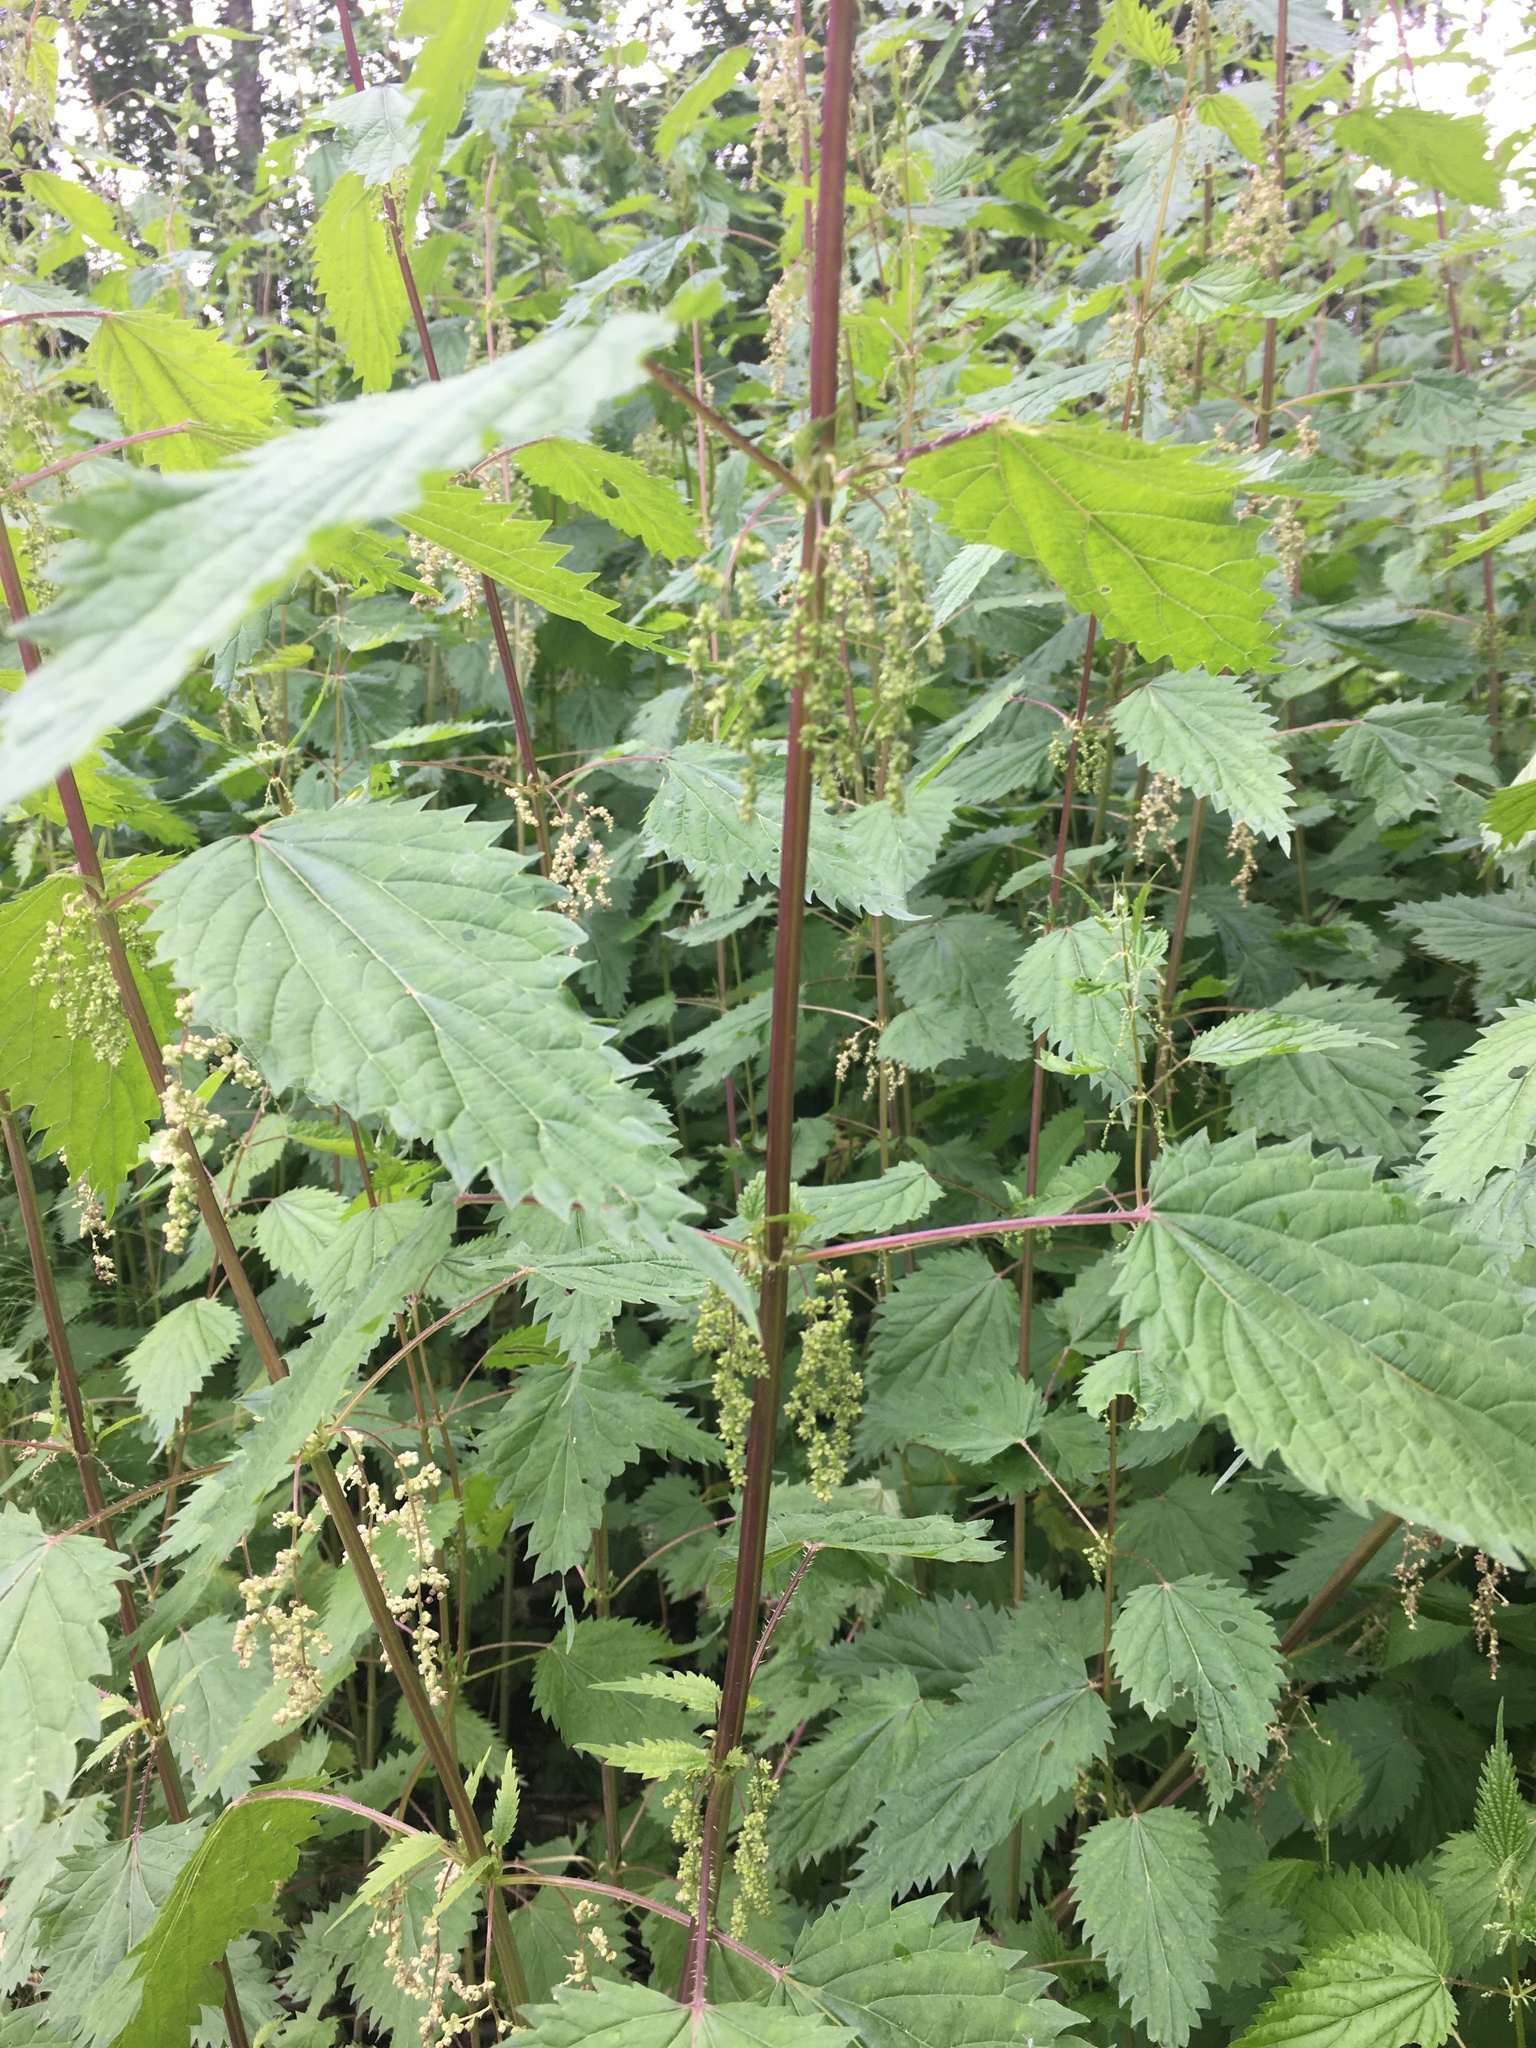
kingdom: Plantae
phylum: Tracheophyta
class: Magnoliopsida
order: Rosales
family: Urticaceae
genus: Urtica
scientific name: Urtica dioica
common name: Common nettle
